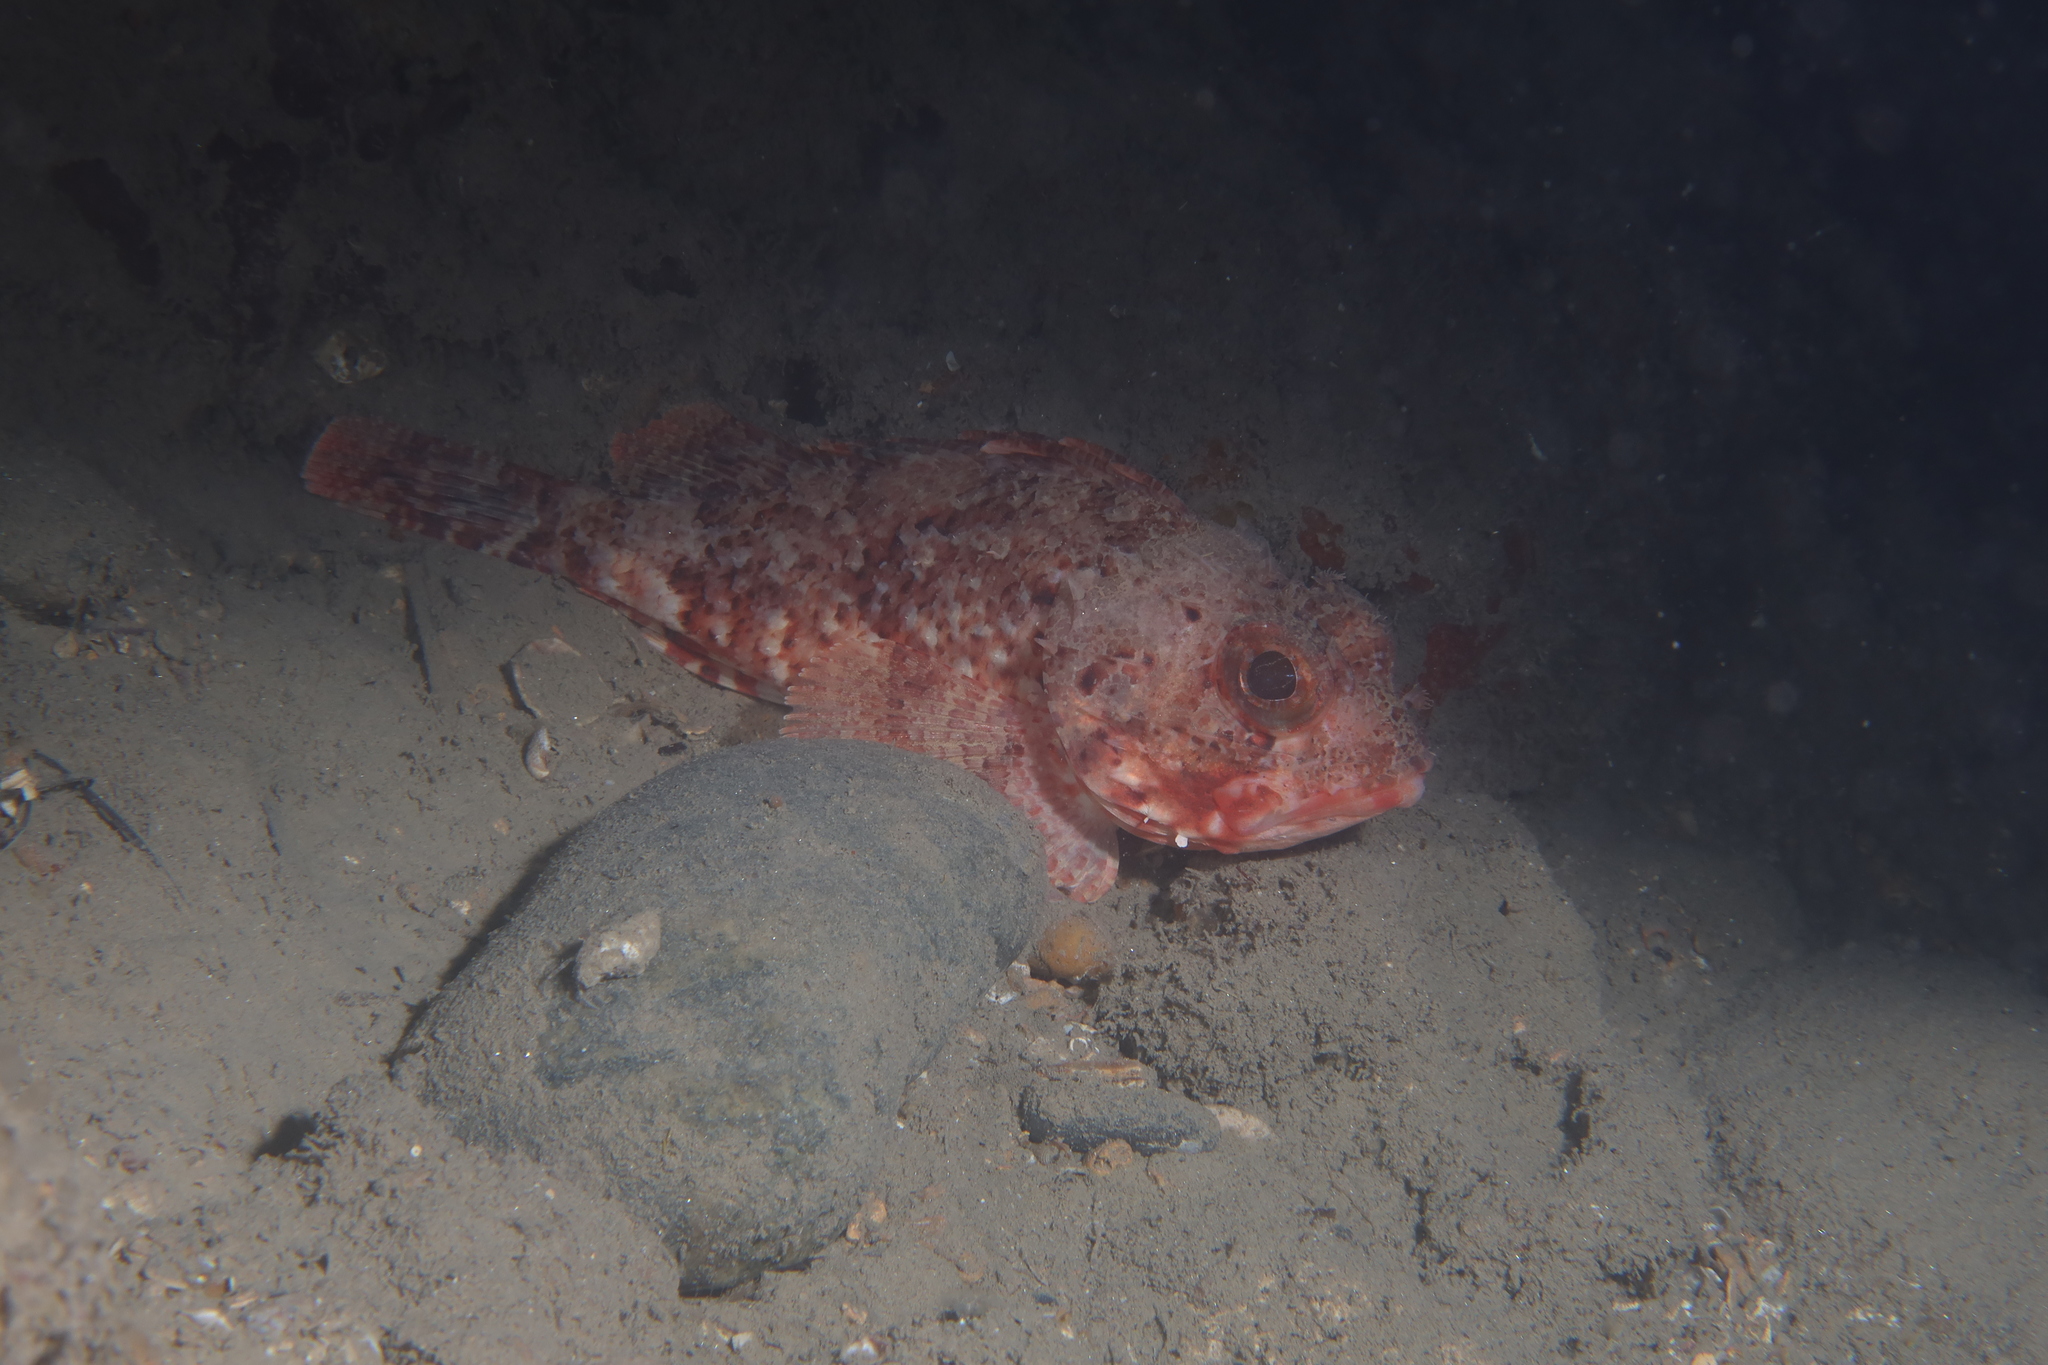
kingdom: Animalia
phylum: Chordata
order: Scorpaeniformes
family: Scorpaenidae
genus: Scorpaena
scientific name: Scorpaena notata
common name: Small red scorpionfish
